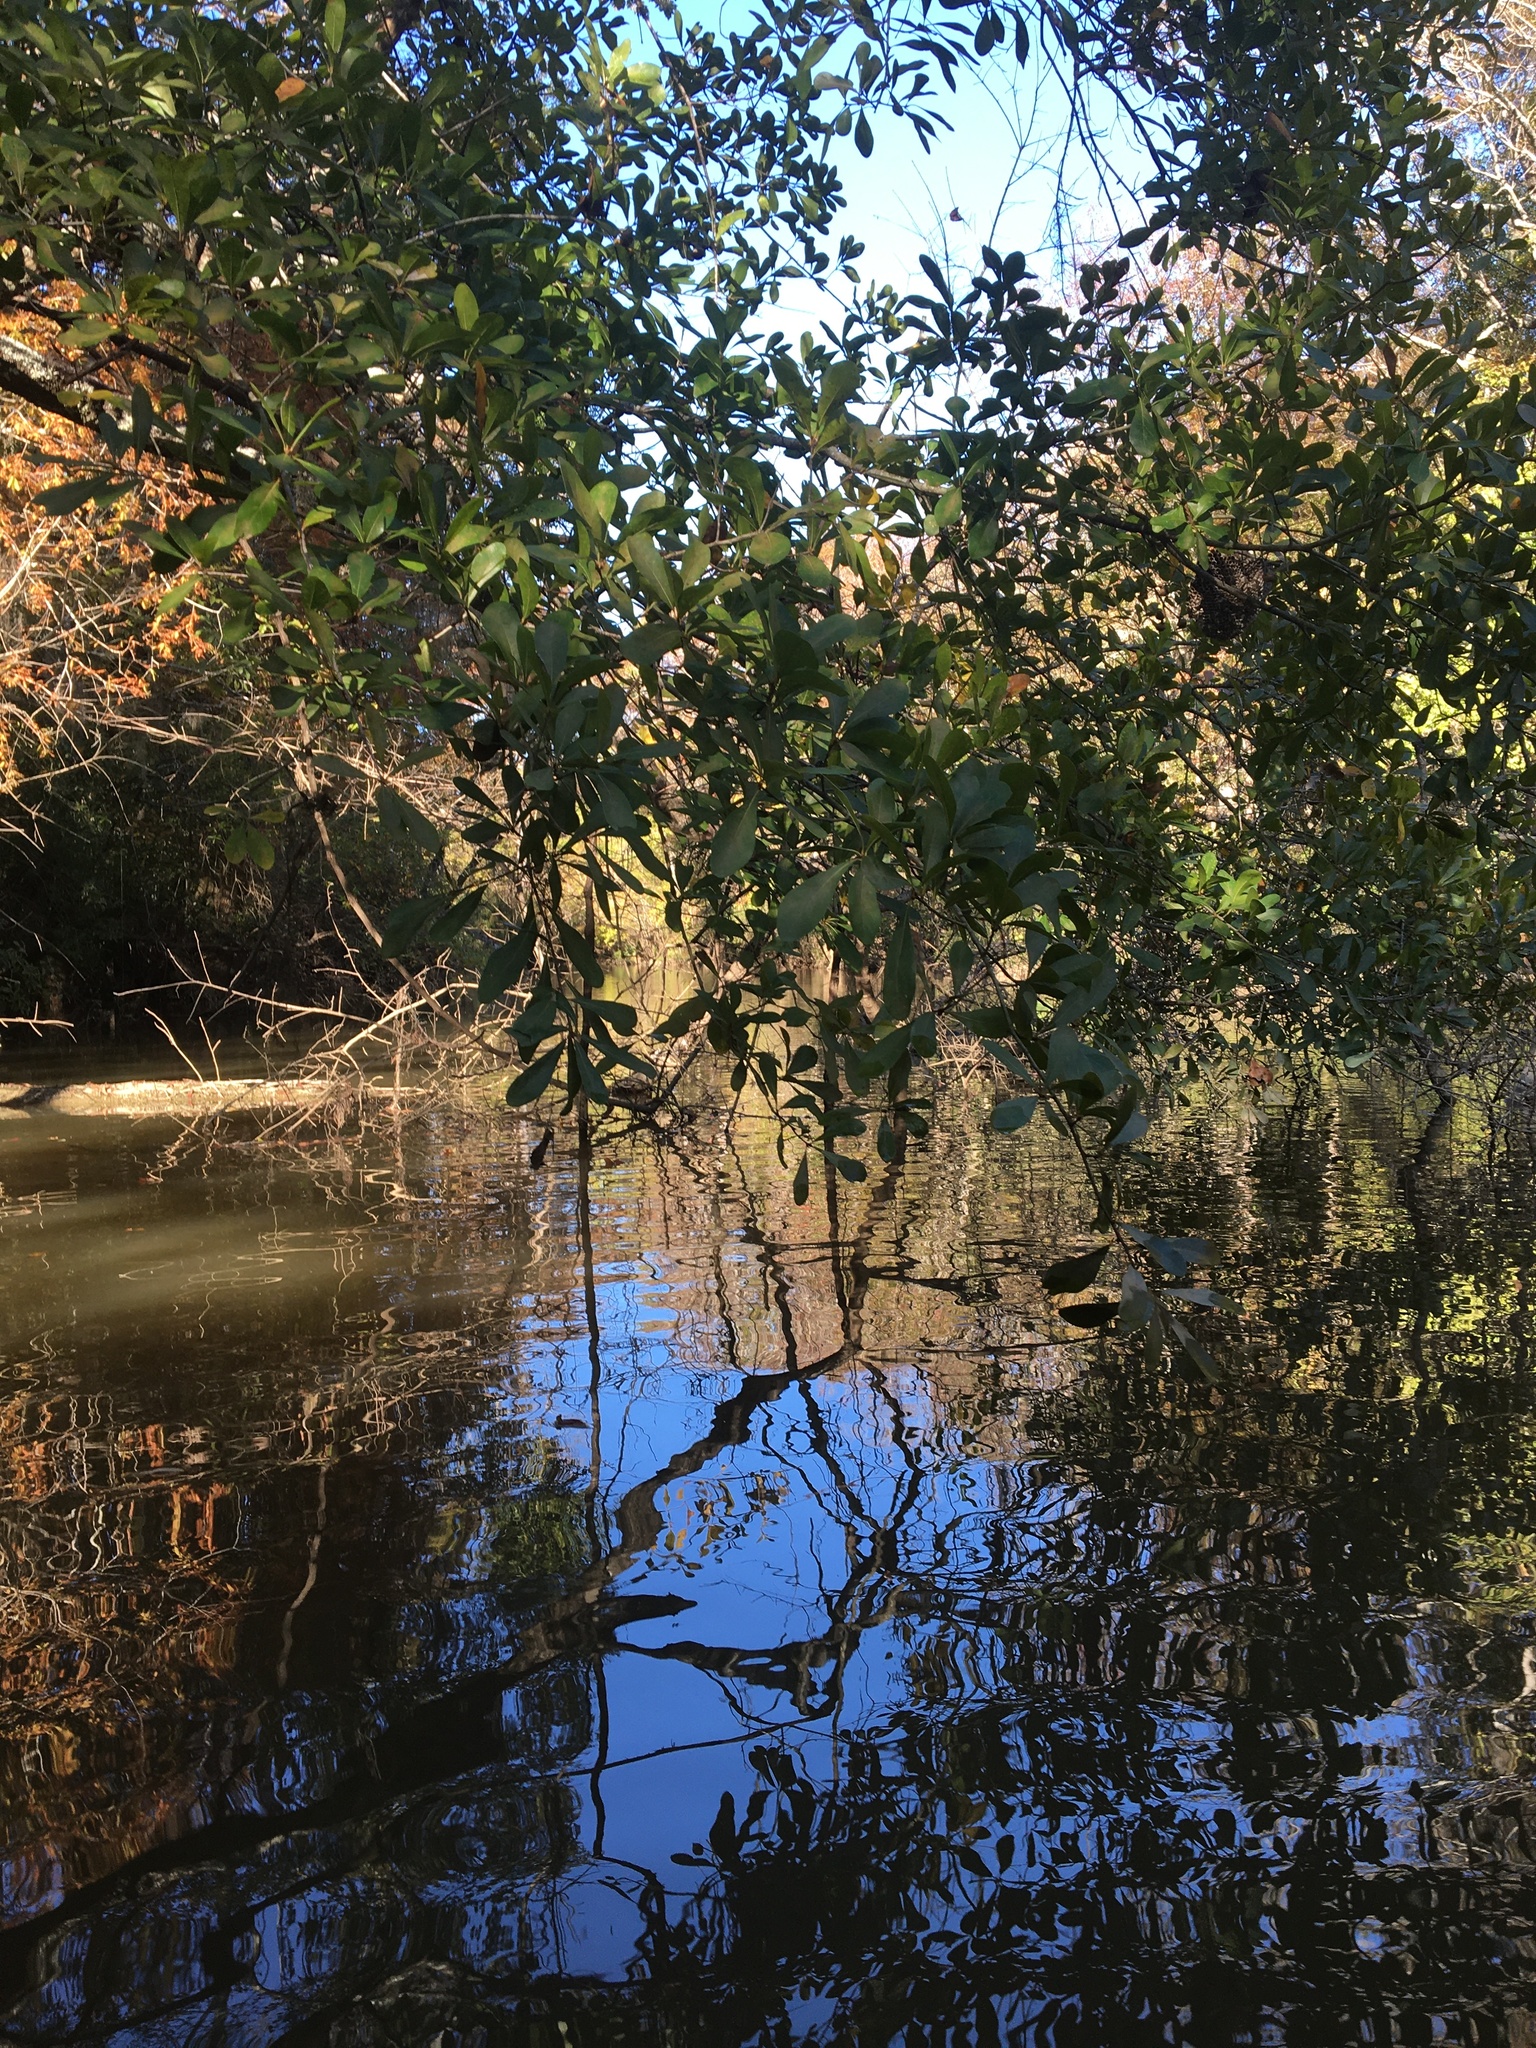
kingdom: Plantae
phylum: Tracheophyta
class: Magnoliopsida
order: Fagales
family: Fagaceae
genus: Quercus
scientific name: Quercus laurifolia
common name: Swamp laurel oak
